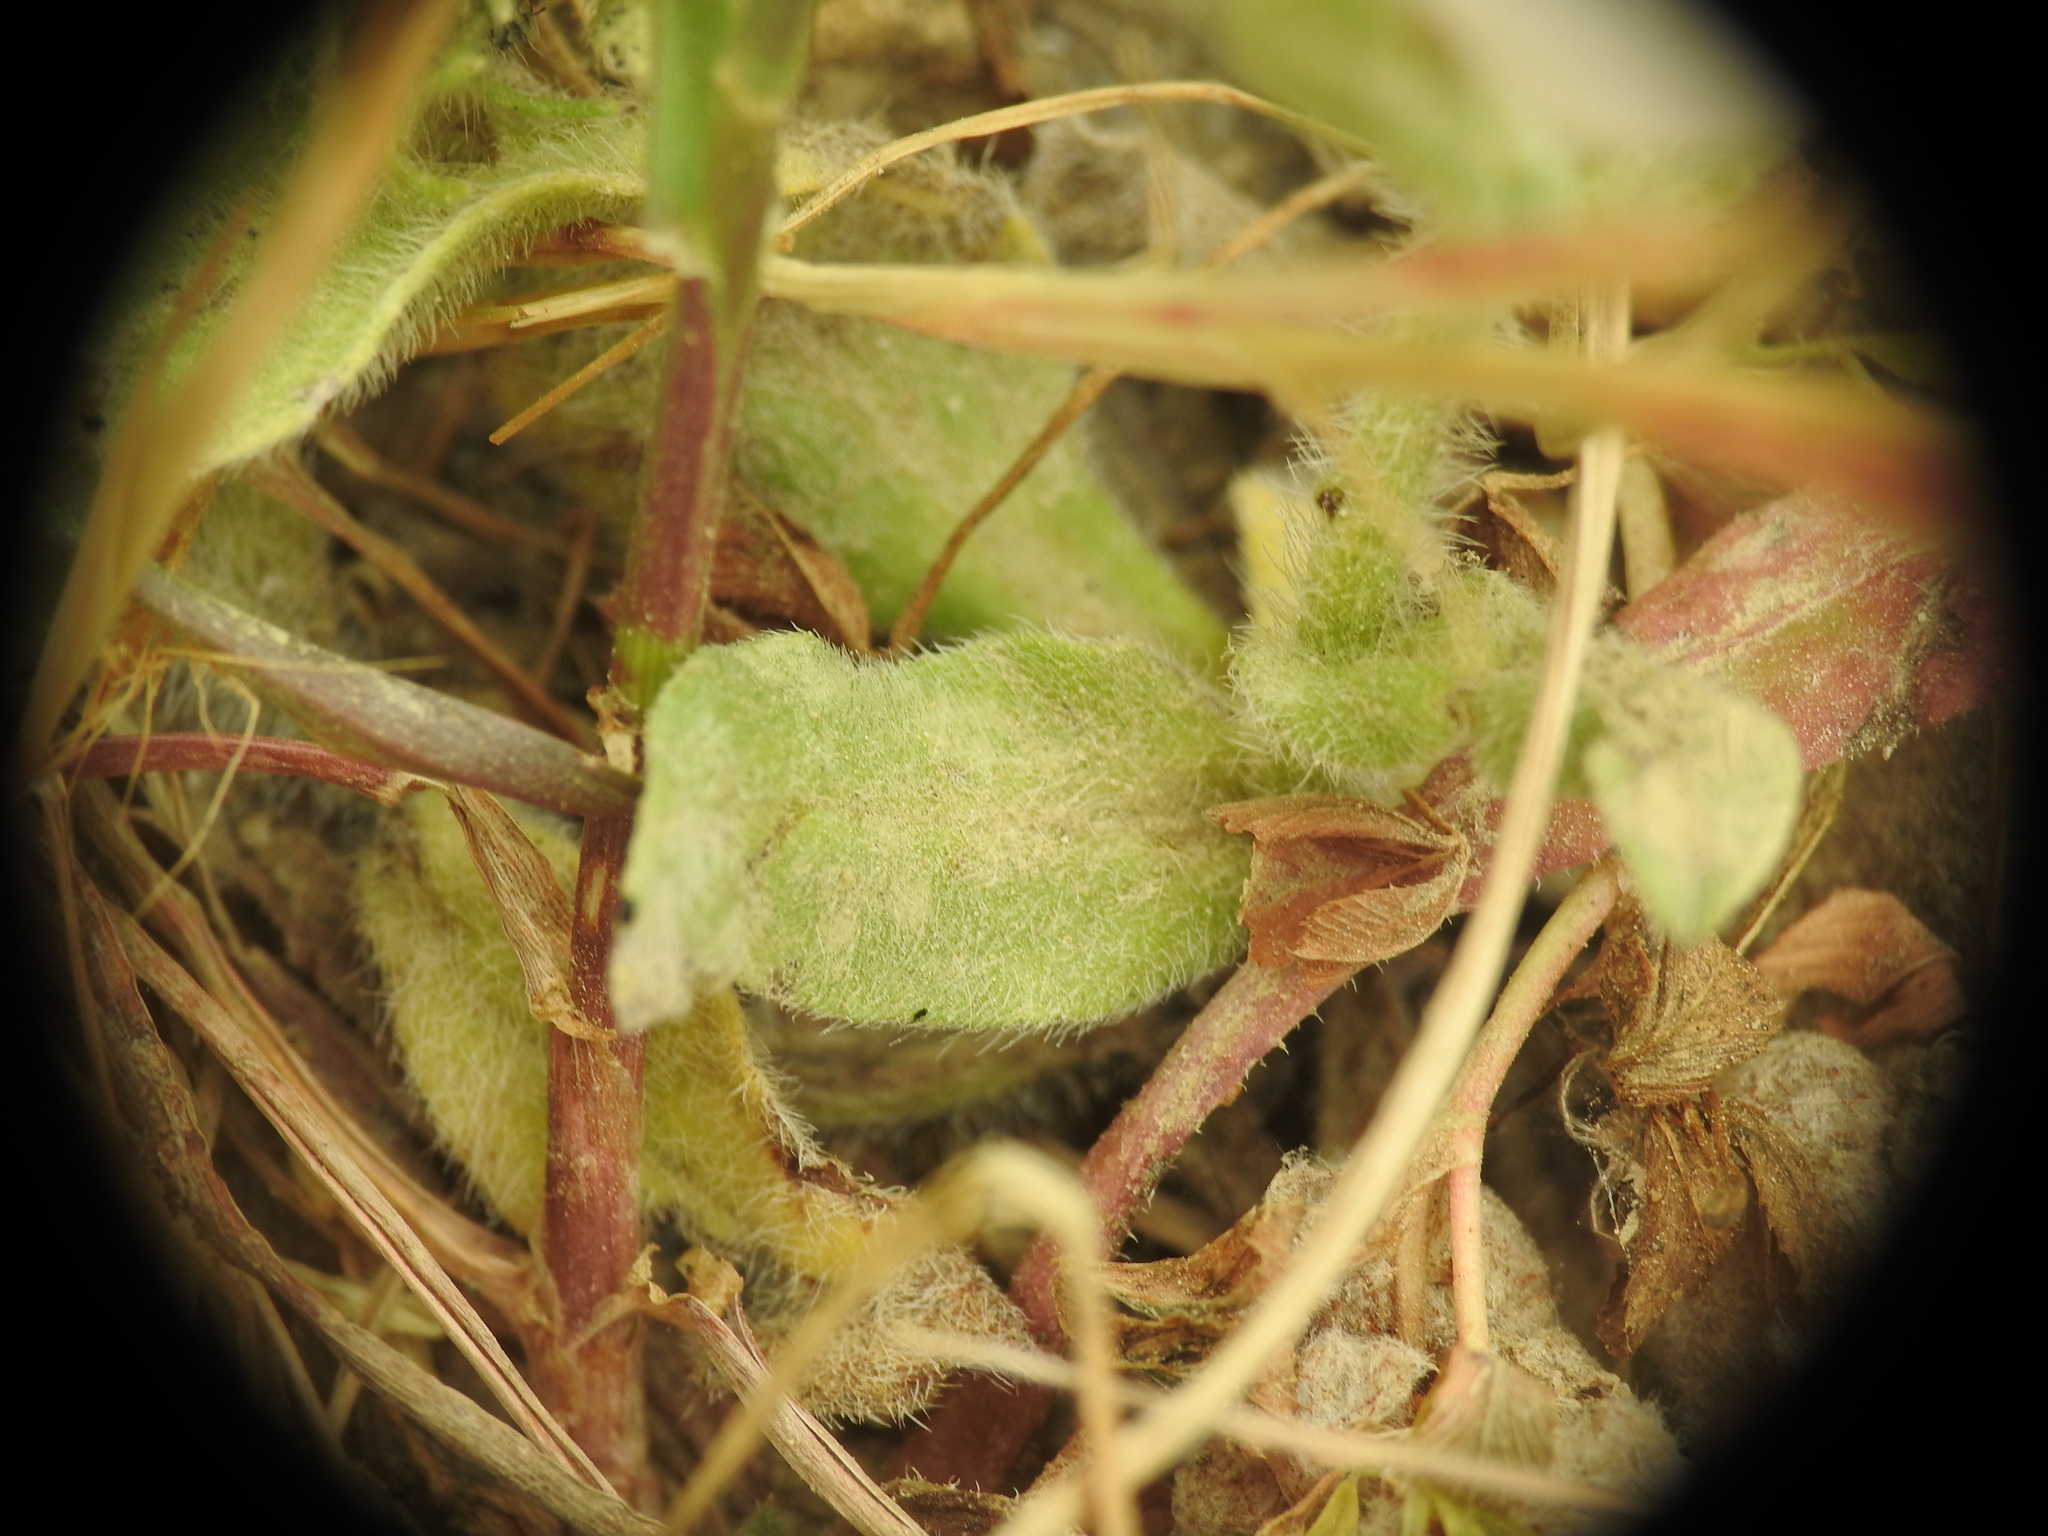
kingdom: Plantae
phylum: Tracheophyta
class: Magnoliopsida
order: Boraginales
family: Boraginaceae
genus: Echium
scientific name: Echium plantagineum
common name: Purple viper's-bugloss
